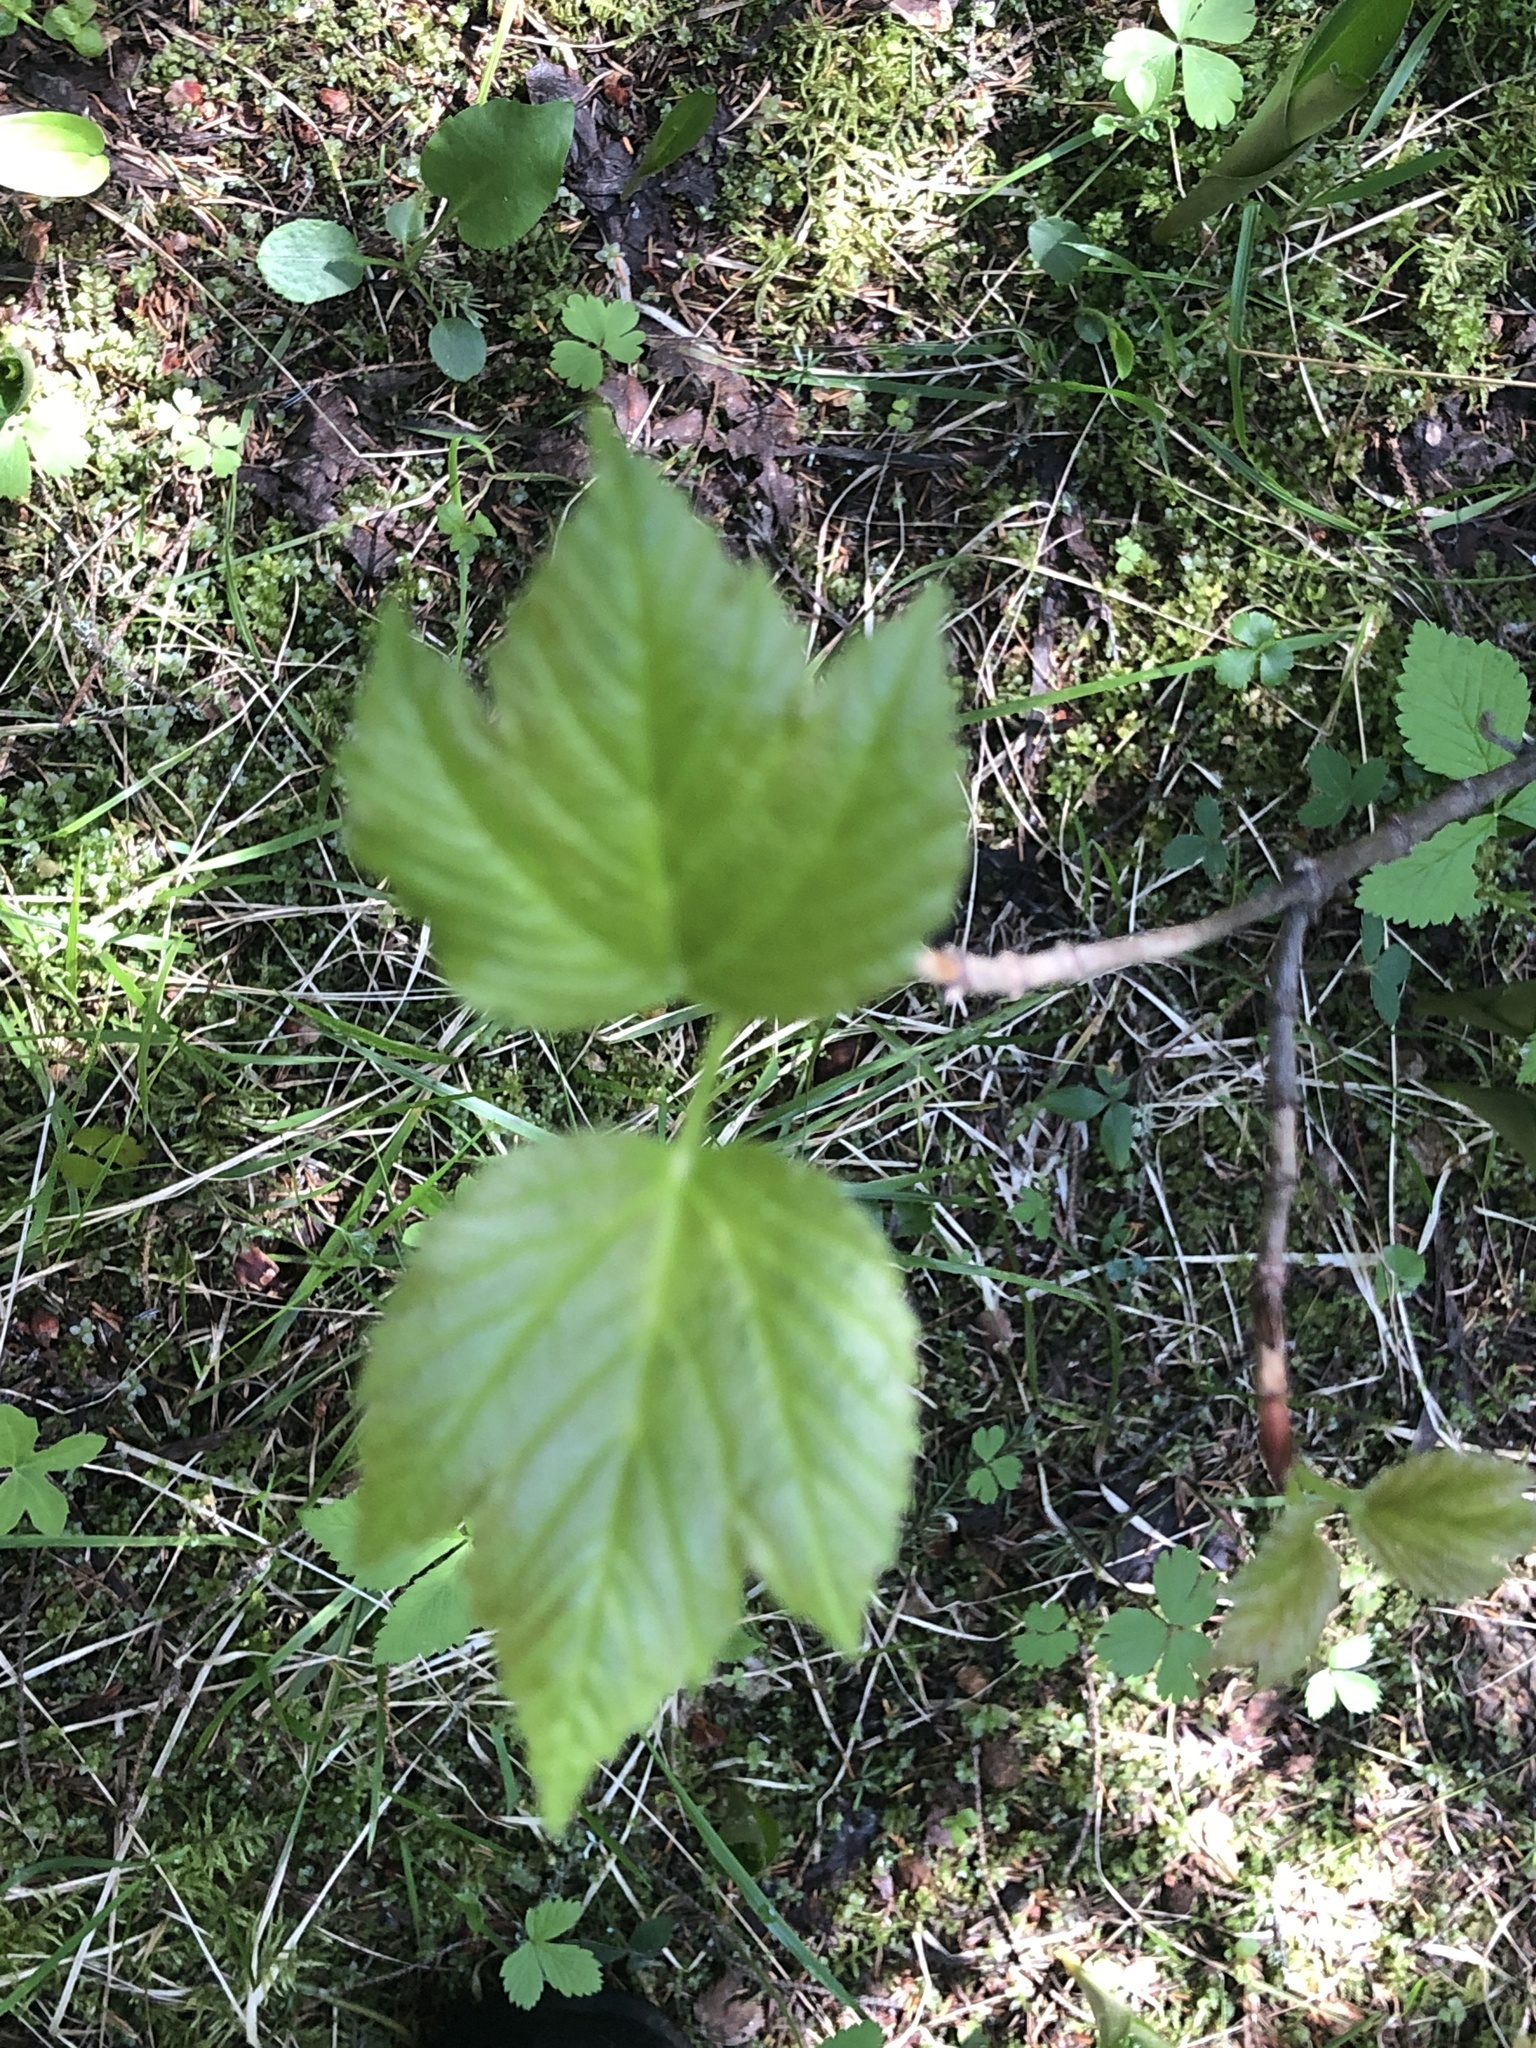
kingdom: Plantae
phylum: Tracheophyta
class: Magnoliopsida
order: Dipsacales
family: Viburnaceae
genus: Viburnum
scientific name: Viburnum edule
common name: Mooseberry
